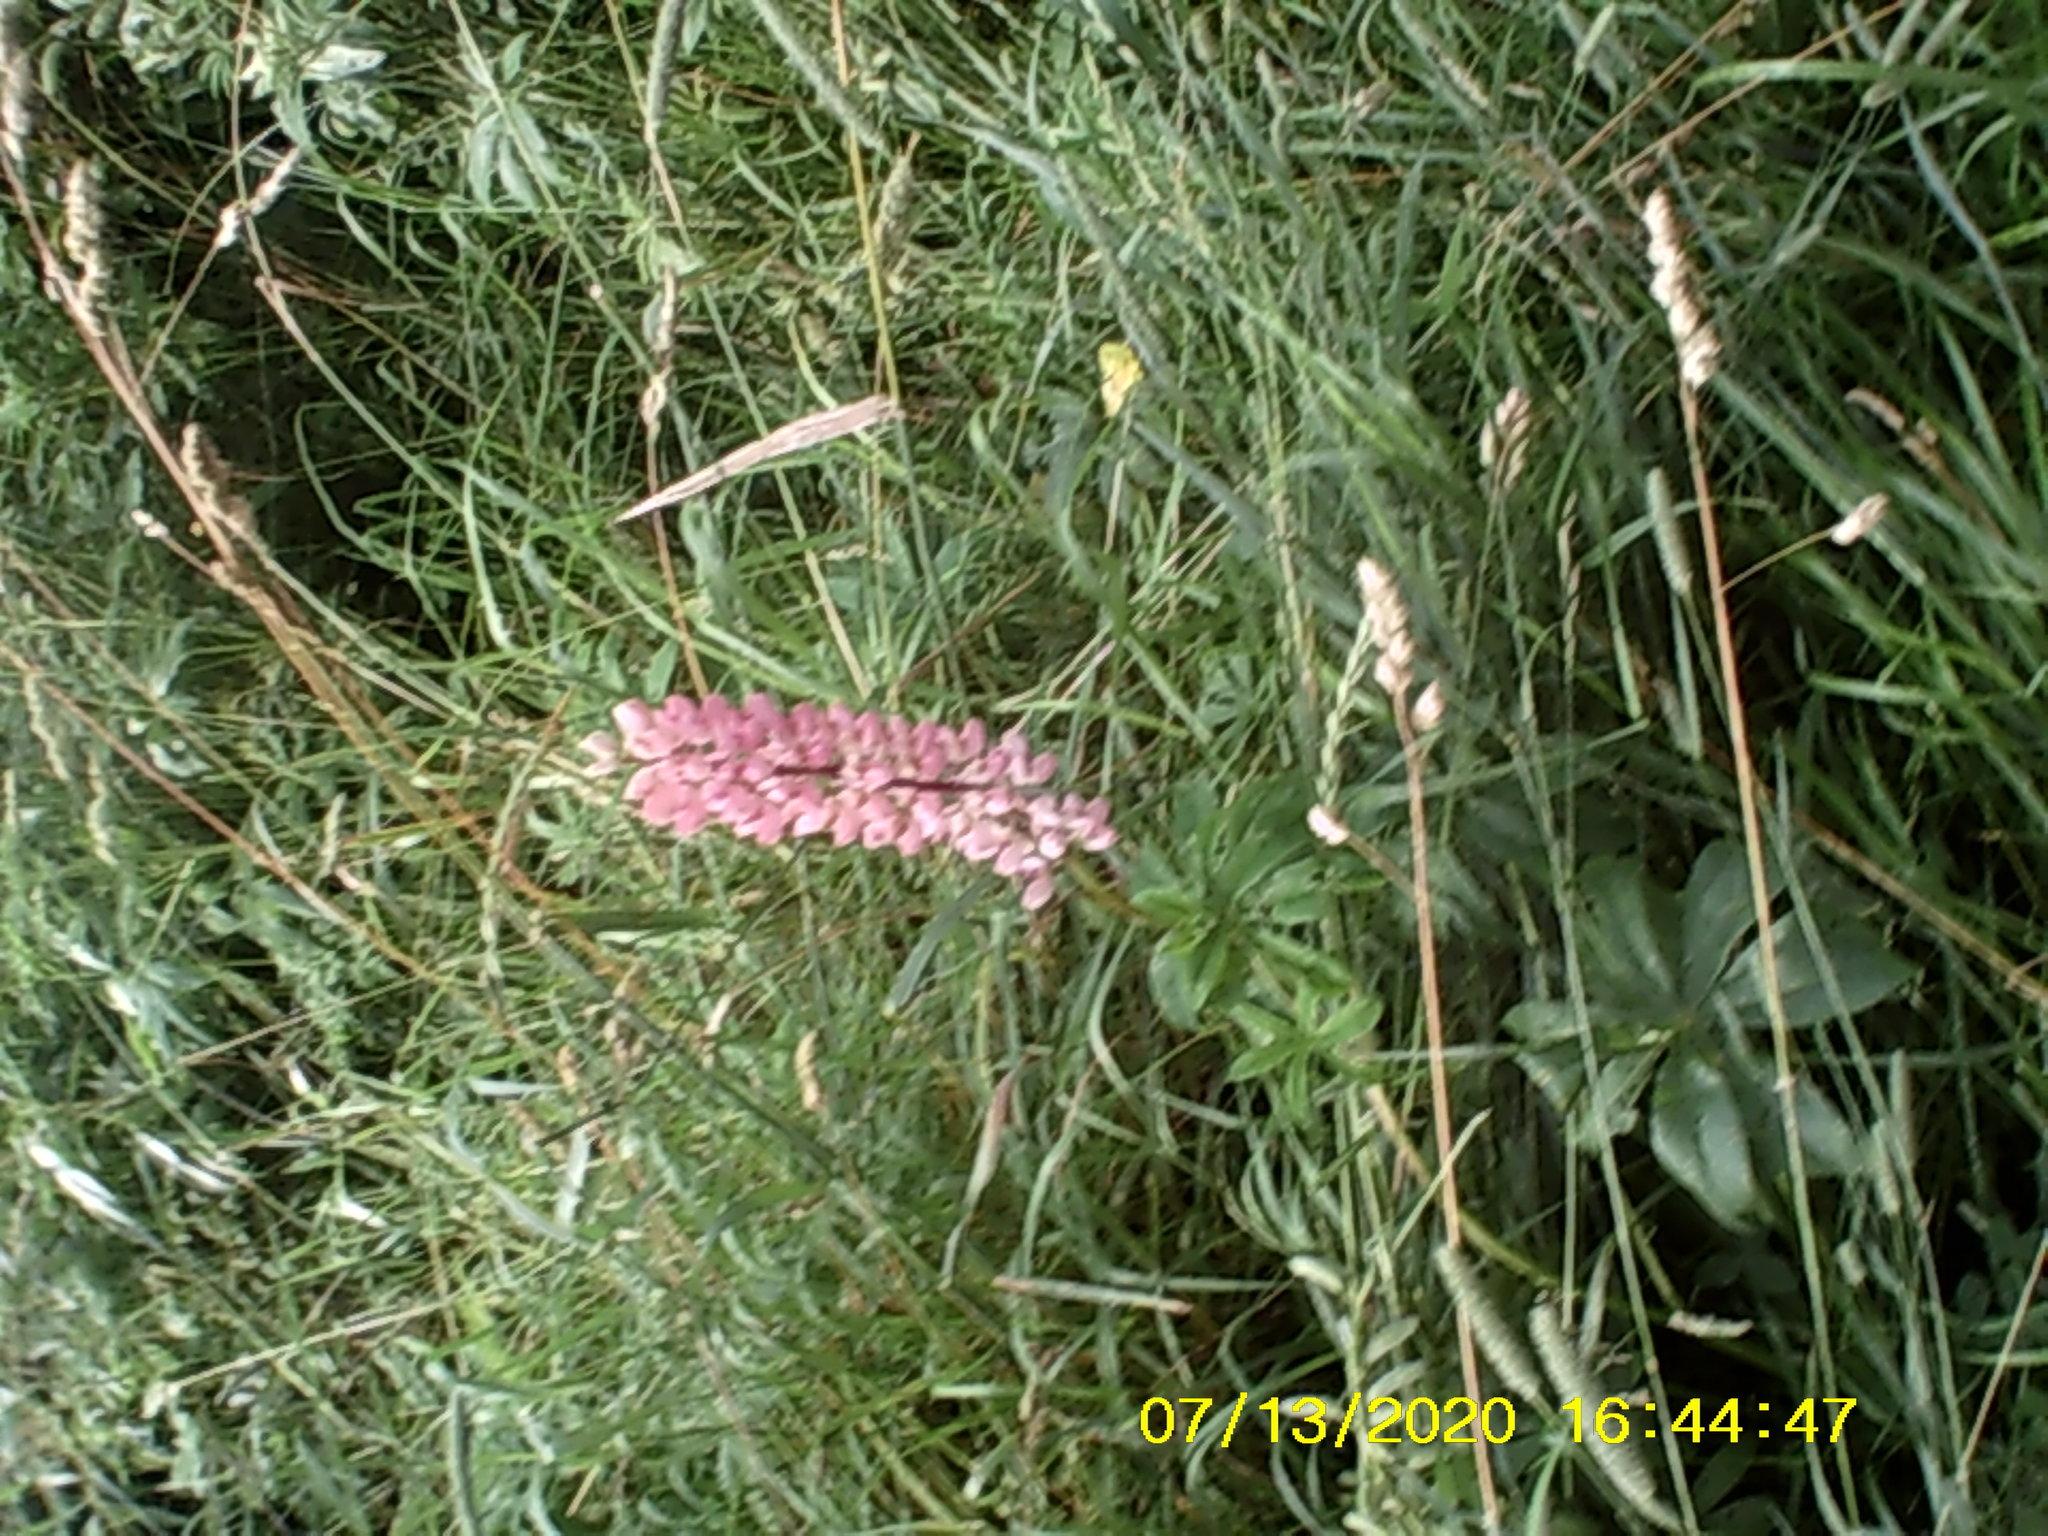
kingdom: Plantae
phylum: Tracheophyta
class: Magnoliopsida
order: Fabales
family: Fabaceae
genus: Lupinus
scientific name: Lupinus polyphyllus
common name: Garden lupin
